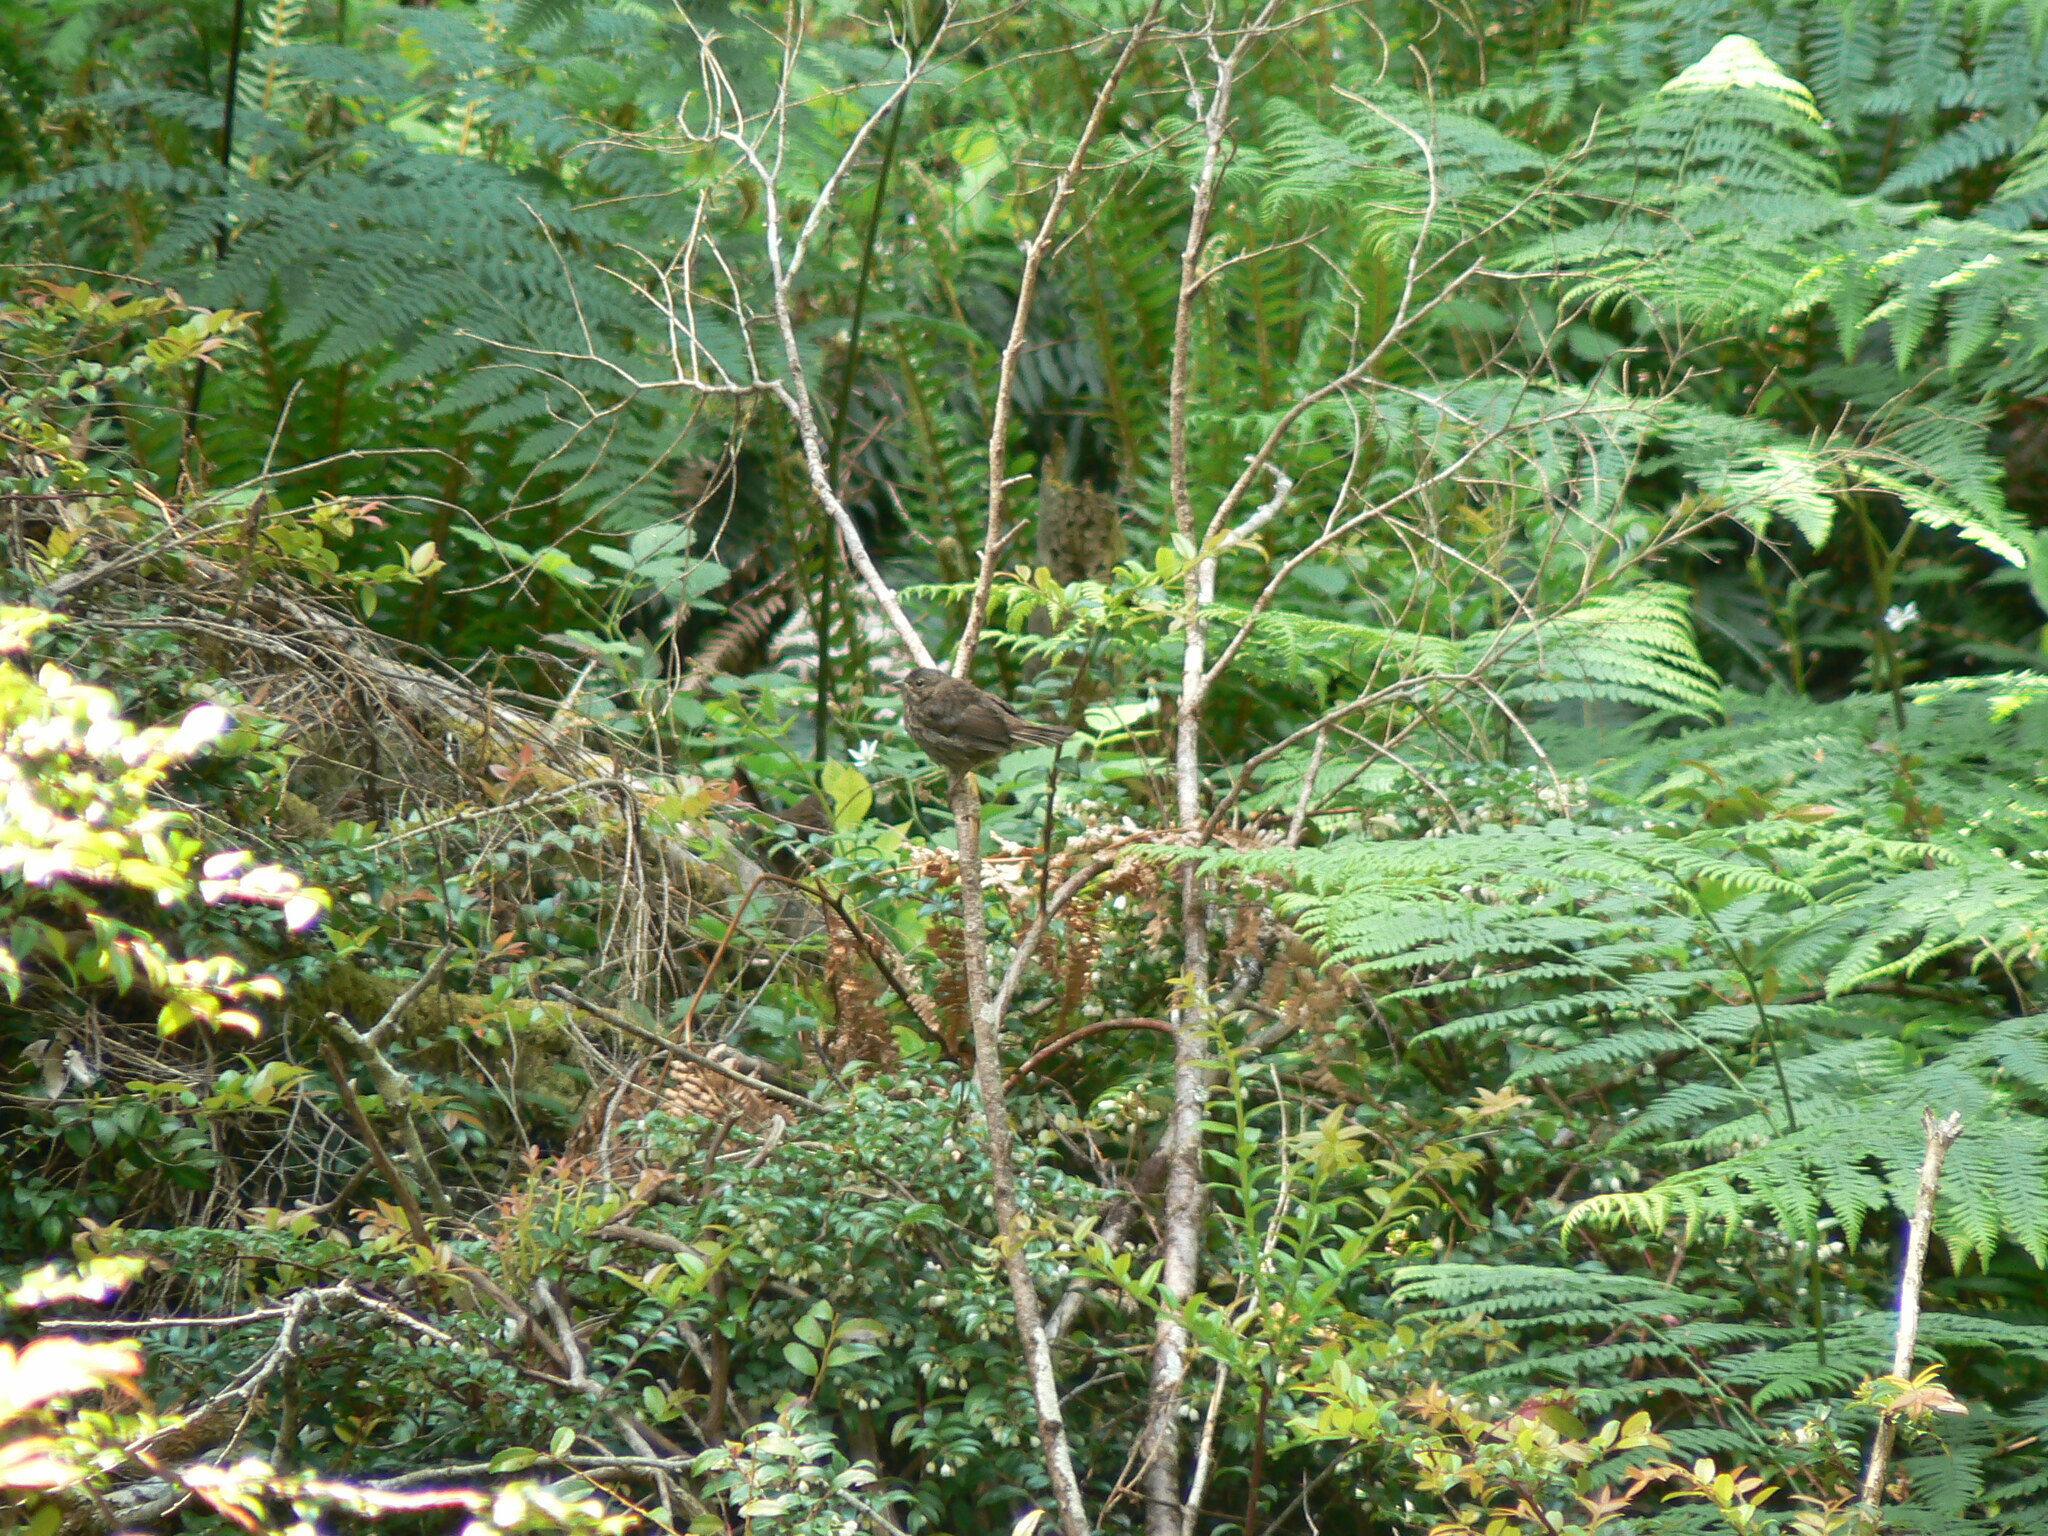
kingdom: Animalia
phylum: Chordata
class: Aves
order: Passeriformes
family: Passerellidae
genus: Passerella
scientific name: Passerella iliaca
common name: Fox sparrow
